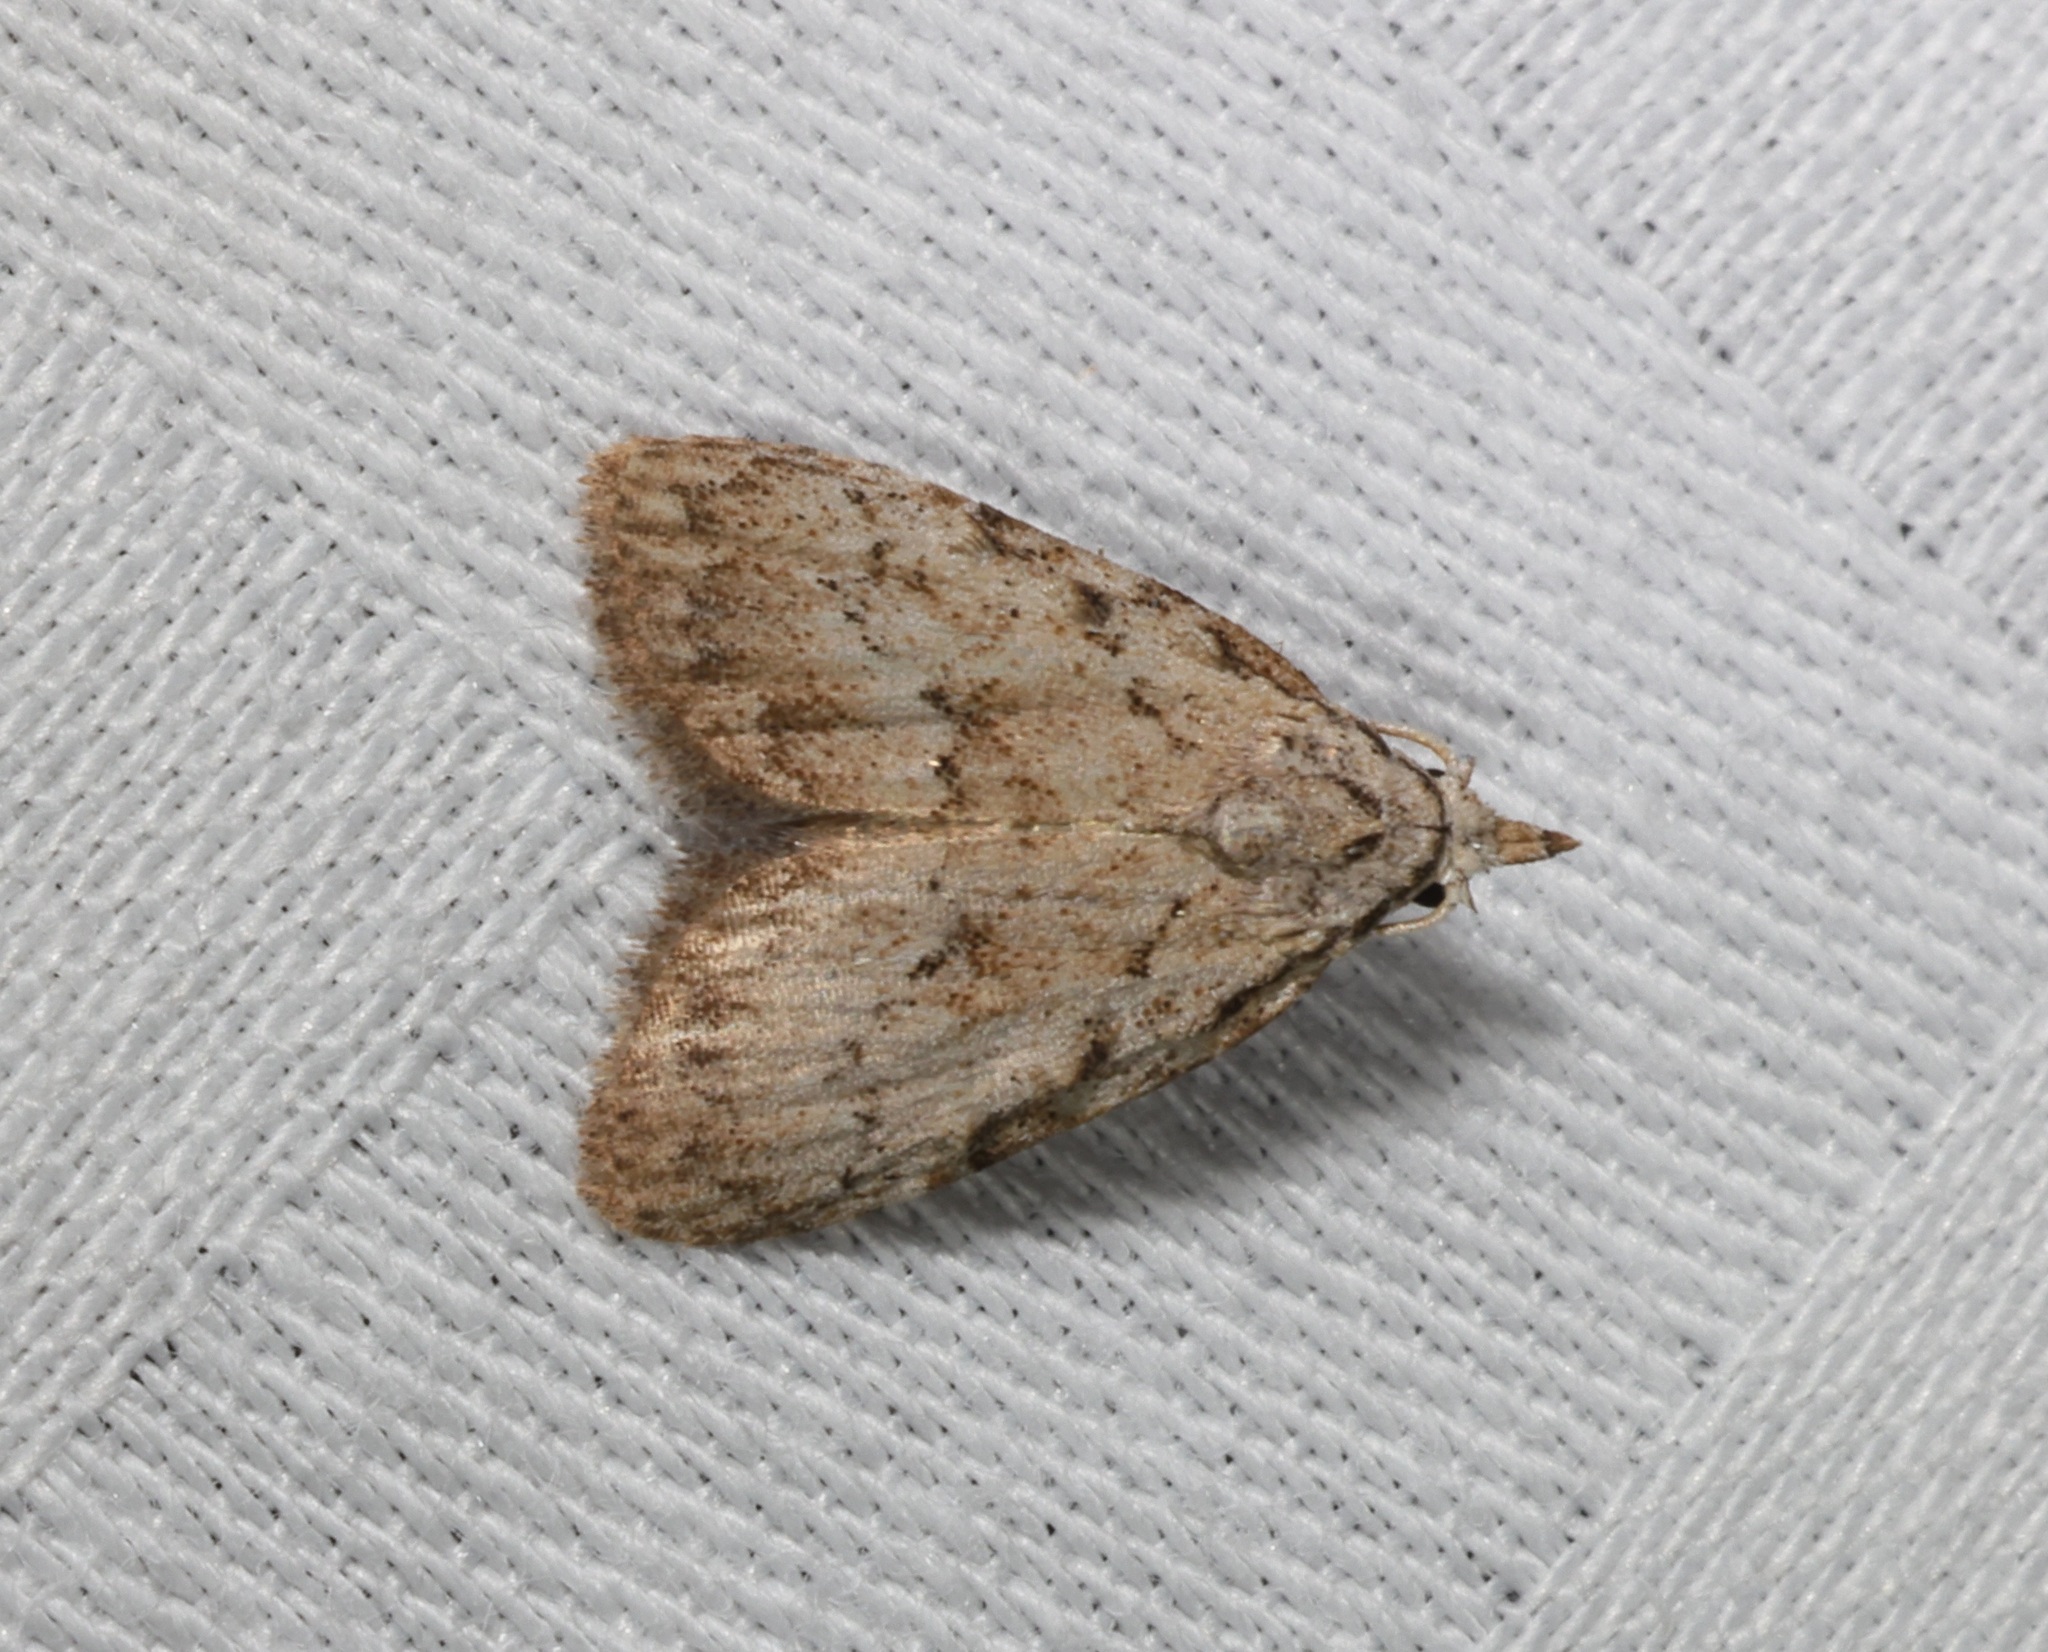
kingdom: Animalia
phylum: Arthropoda
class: Insecta
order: Lepidoptera
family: Nolidae
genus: Spininola
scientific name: Spininola kendricki
